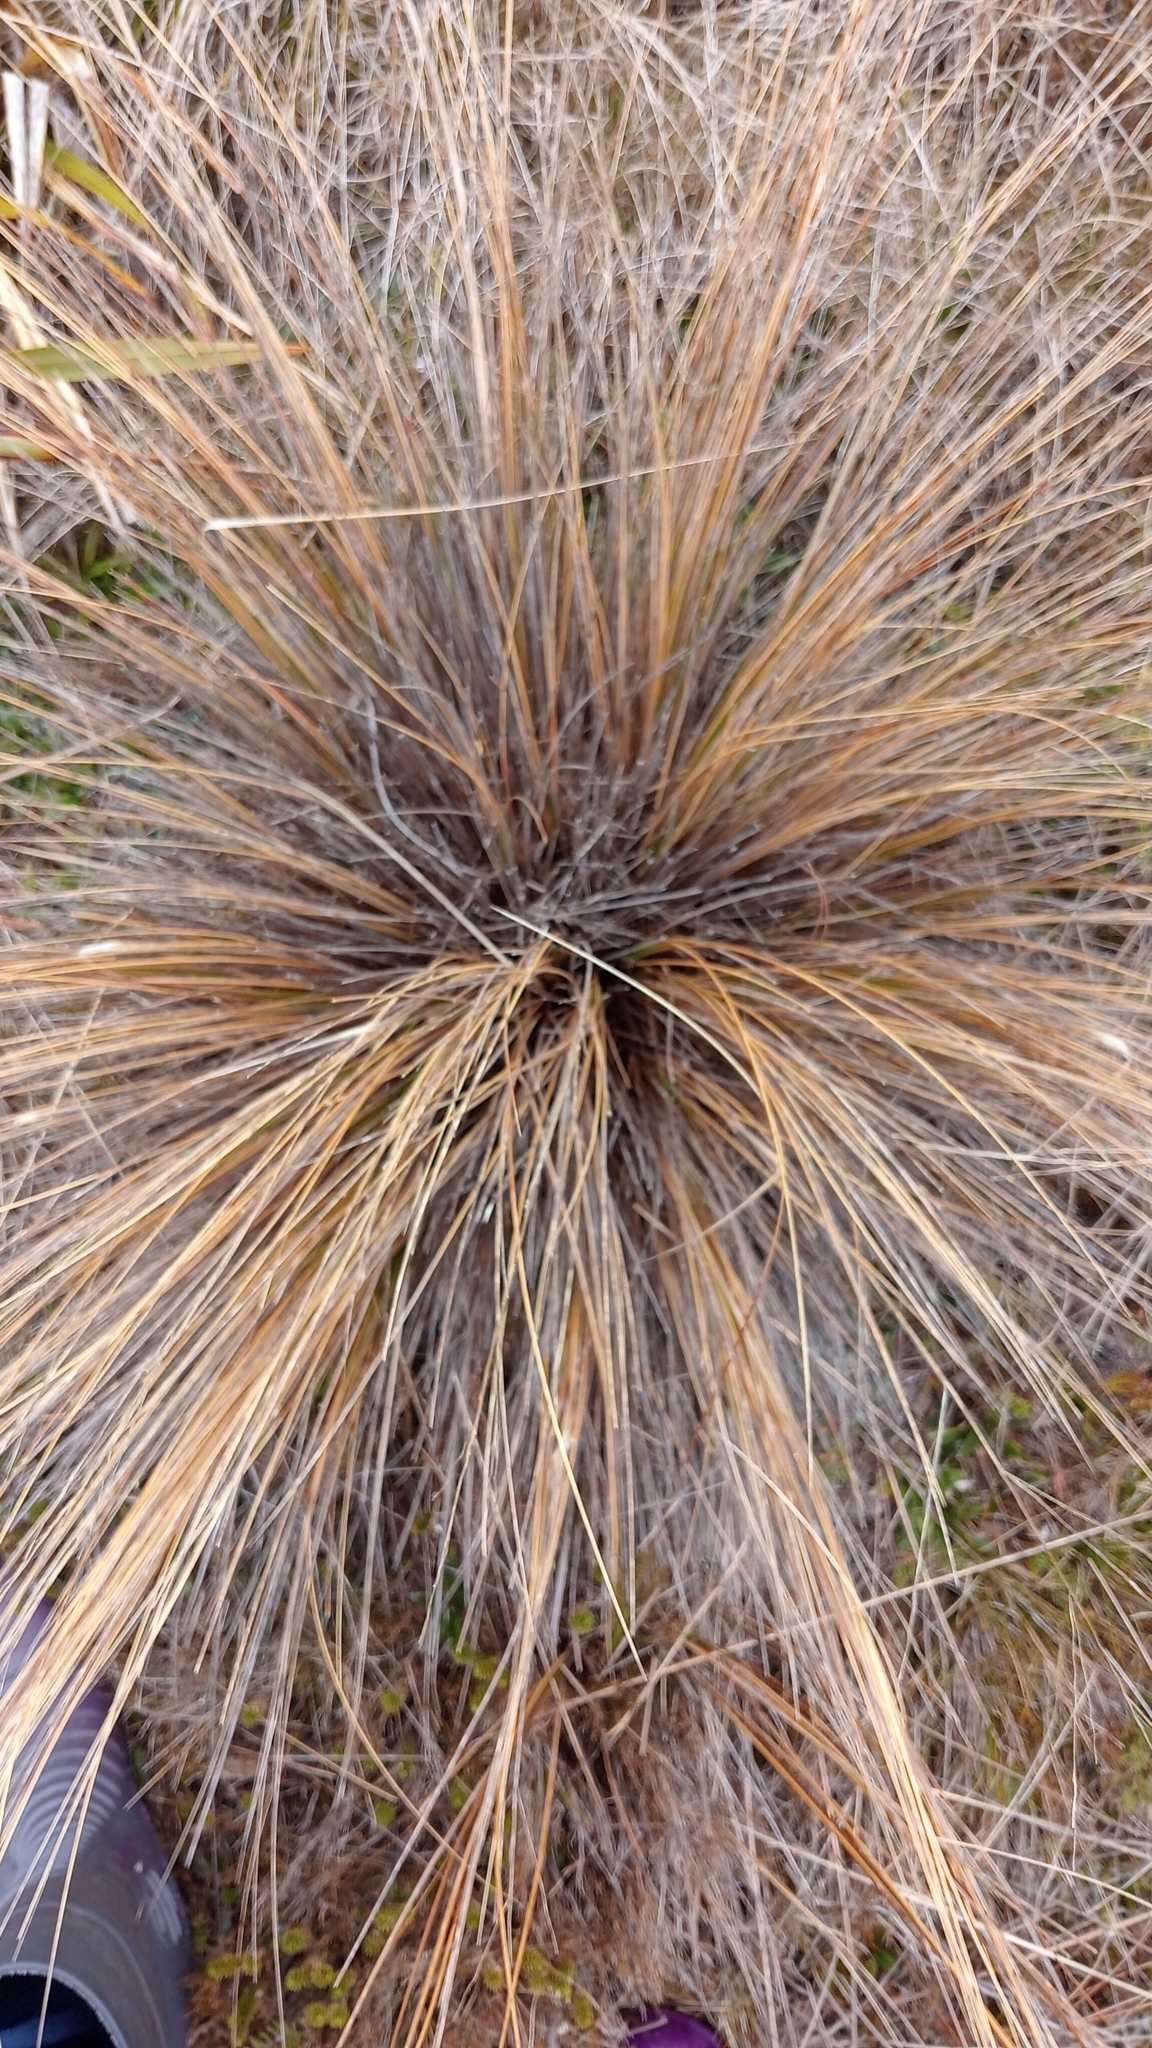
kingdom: Plantae
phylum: Tracheophyta
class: Liliopsida
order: Poales
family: Poaceae
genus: Chionochloa
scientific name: Chionochloa juncea
